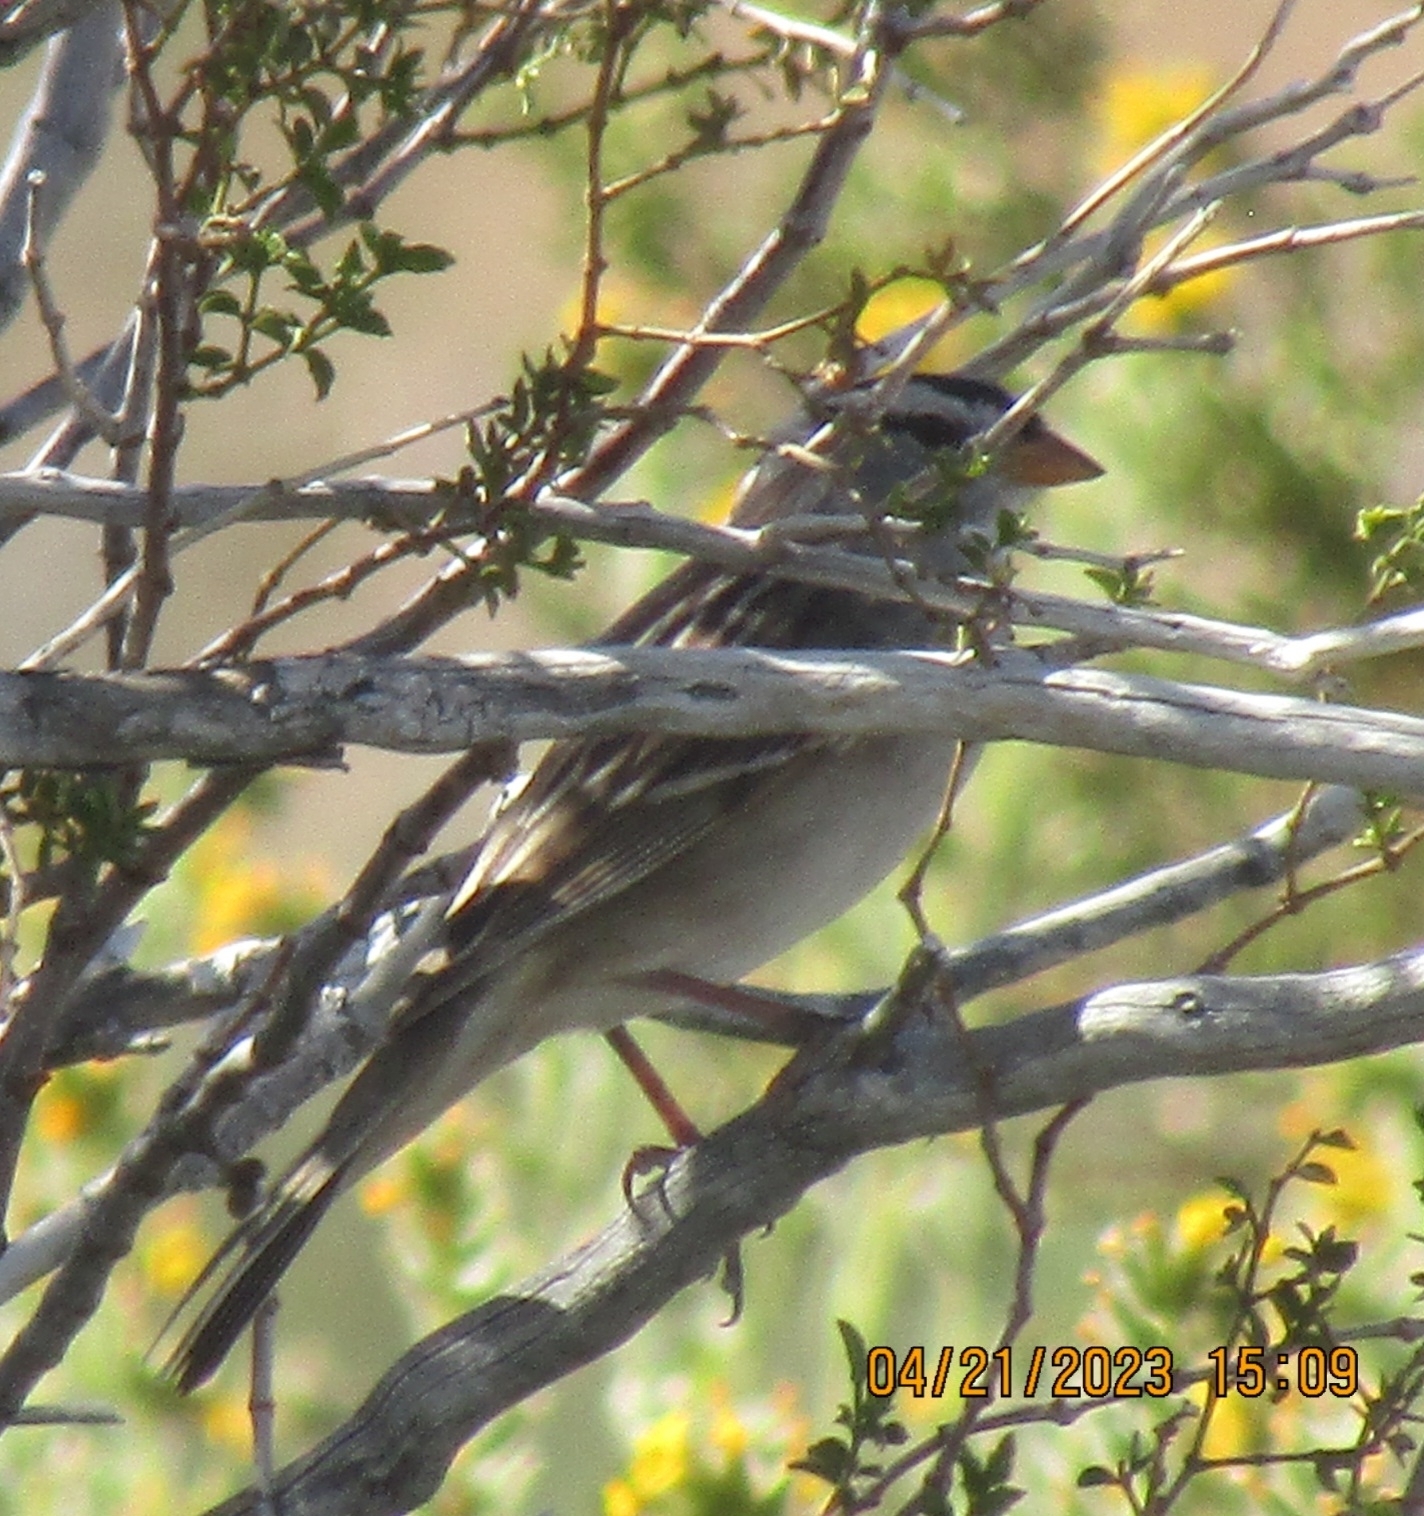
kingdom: Animalia
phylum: Chordata
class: Aves
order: Passeriformes
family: Passerellidae
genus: Zonotrichia
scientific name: Zonotrichia leucophrys
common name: White-crowned sparrow
